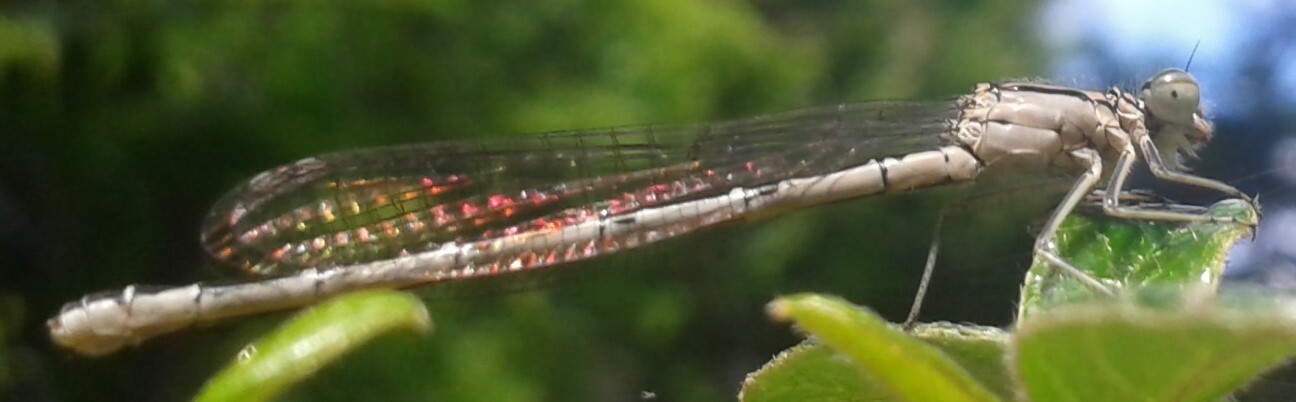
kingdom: Animalia
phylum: Arthropoda
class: Insecta
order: Odonata
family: Coenagrionidae
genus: Enallagma
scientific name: Enallagma cyathigerum
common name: Common blue damselfly
